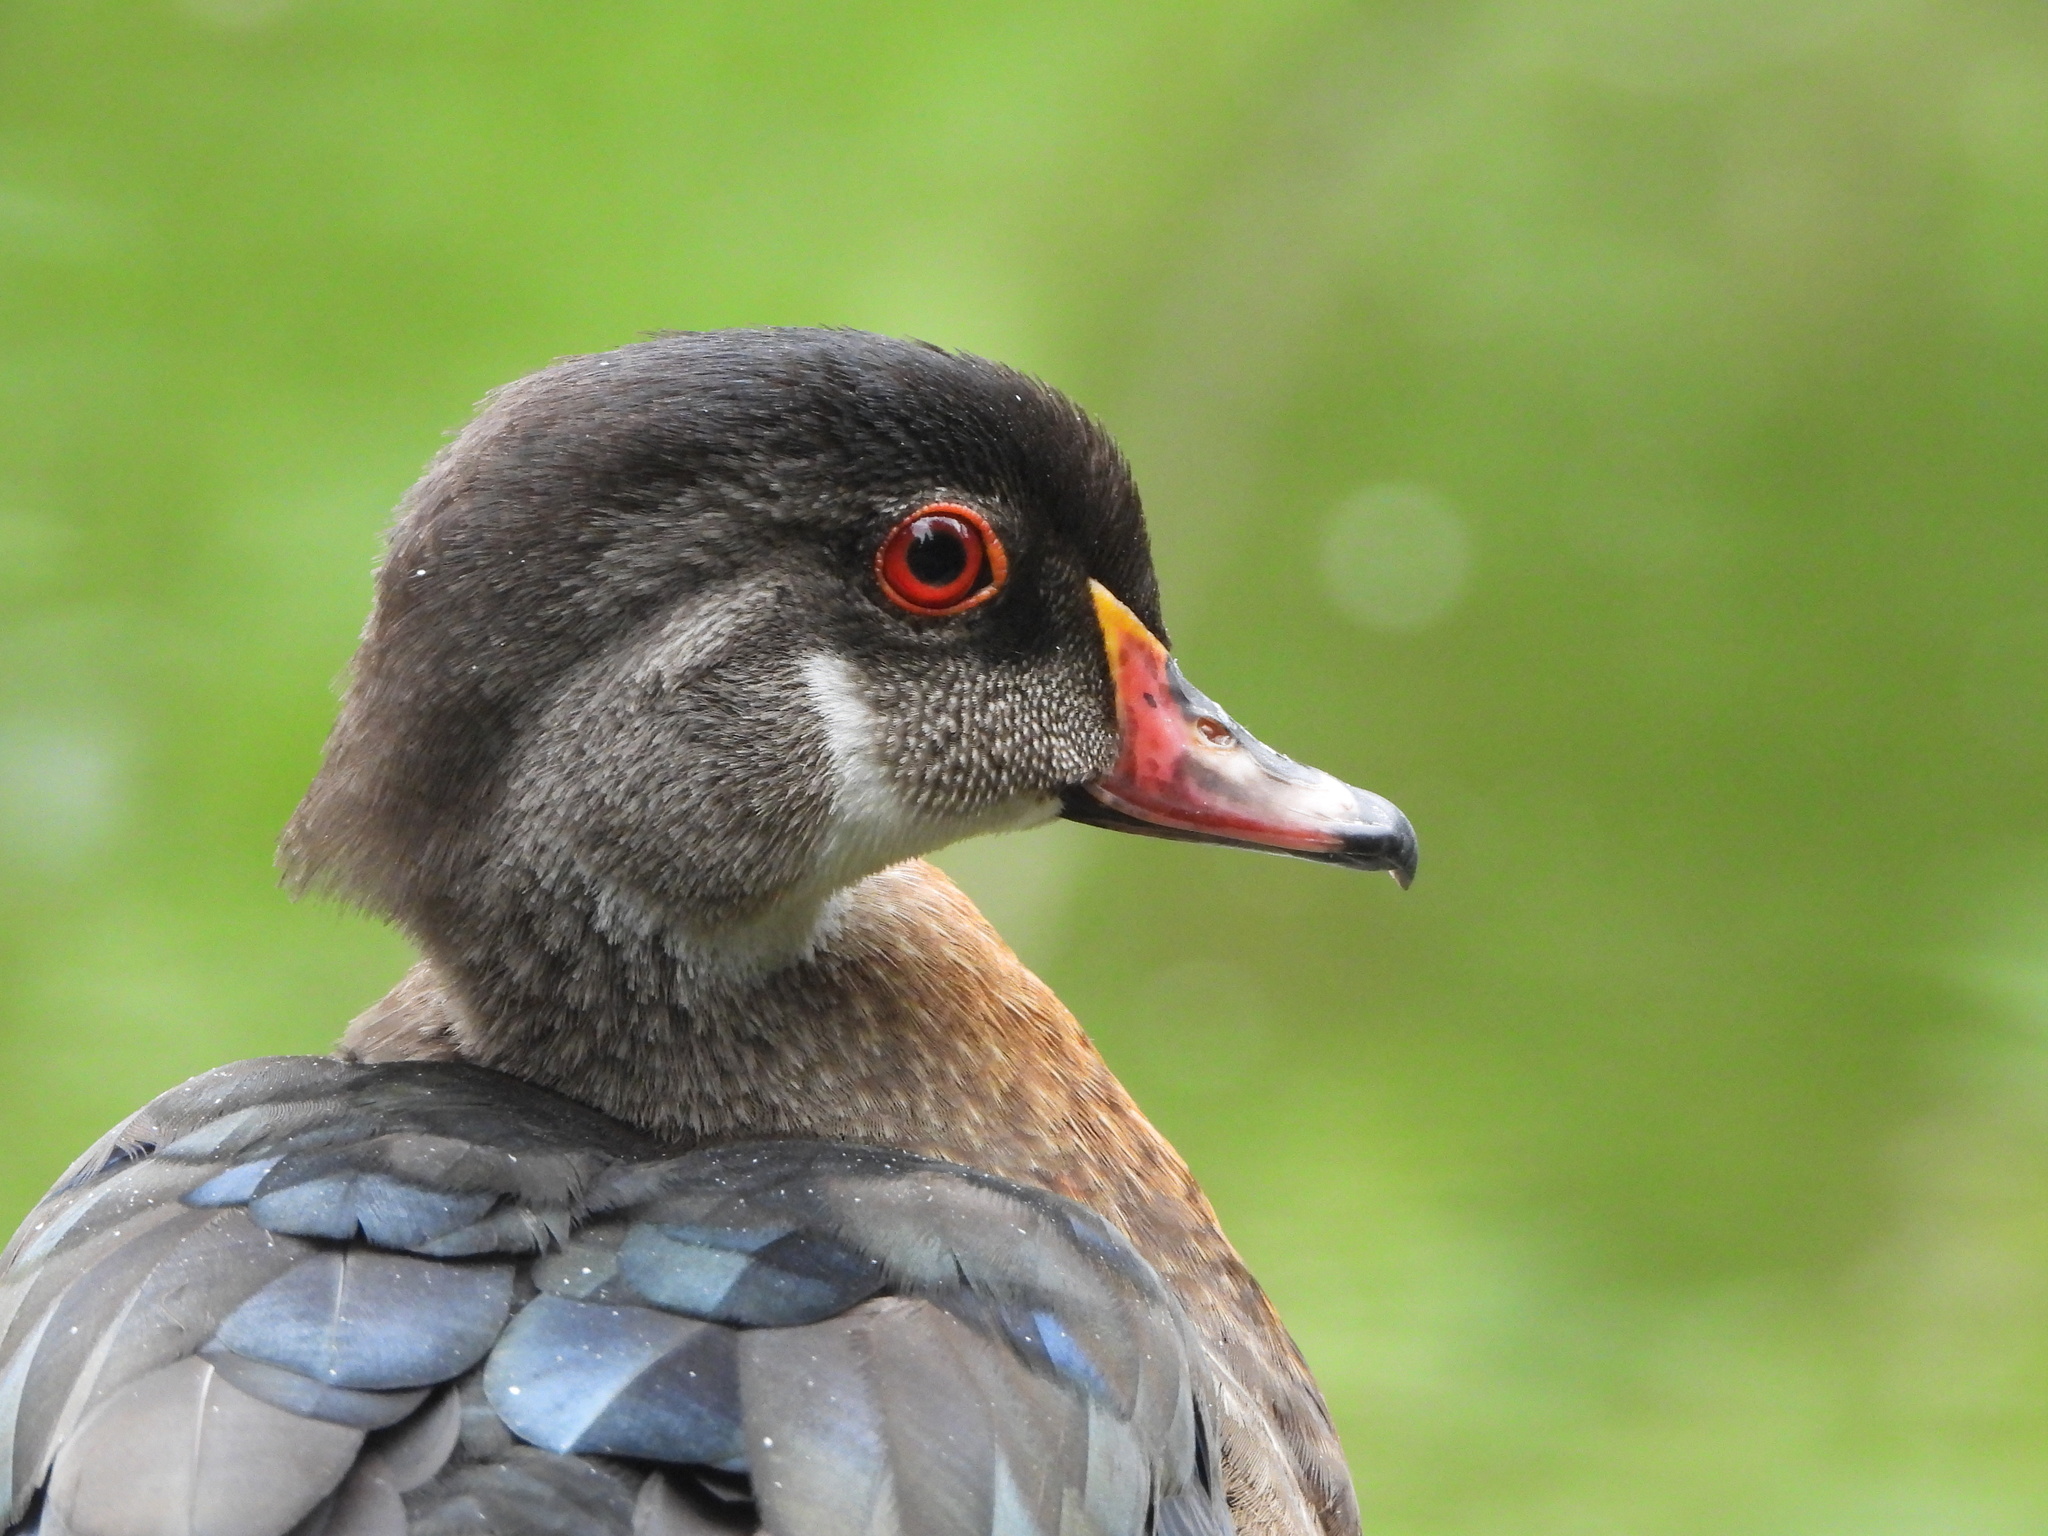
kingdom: Animalia
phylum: Chordata
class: Aves
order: Anseriformes
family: Anatidae
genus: Aix
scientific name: Aix sponsa
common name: Wood duck
